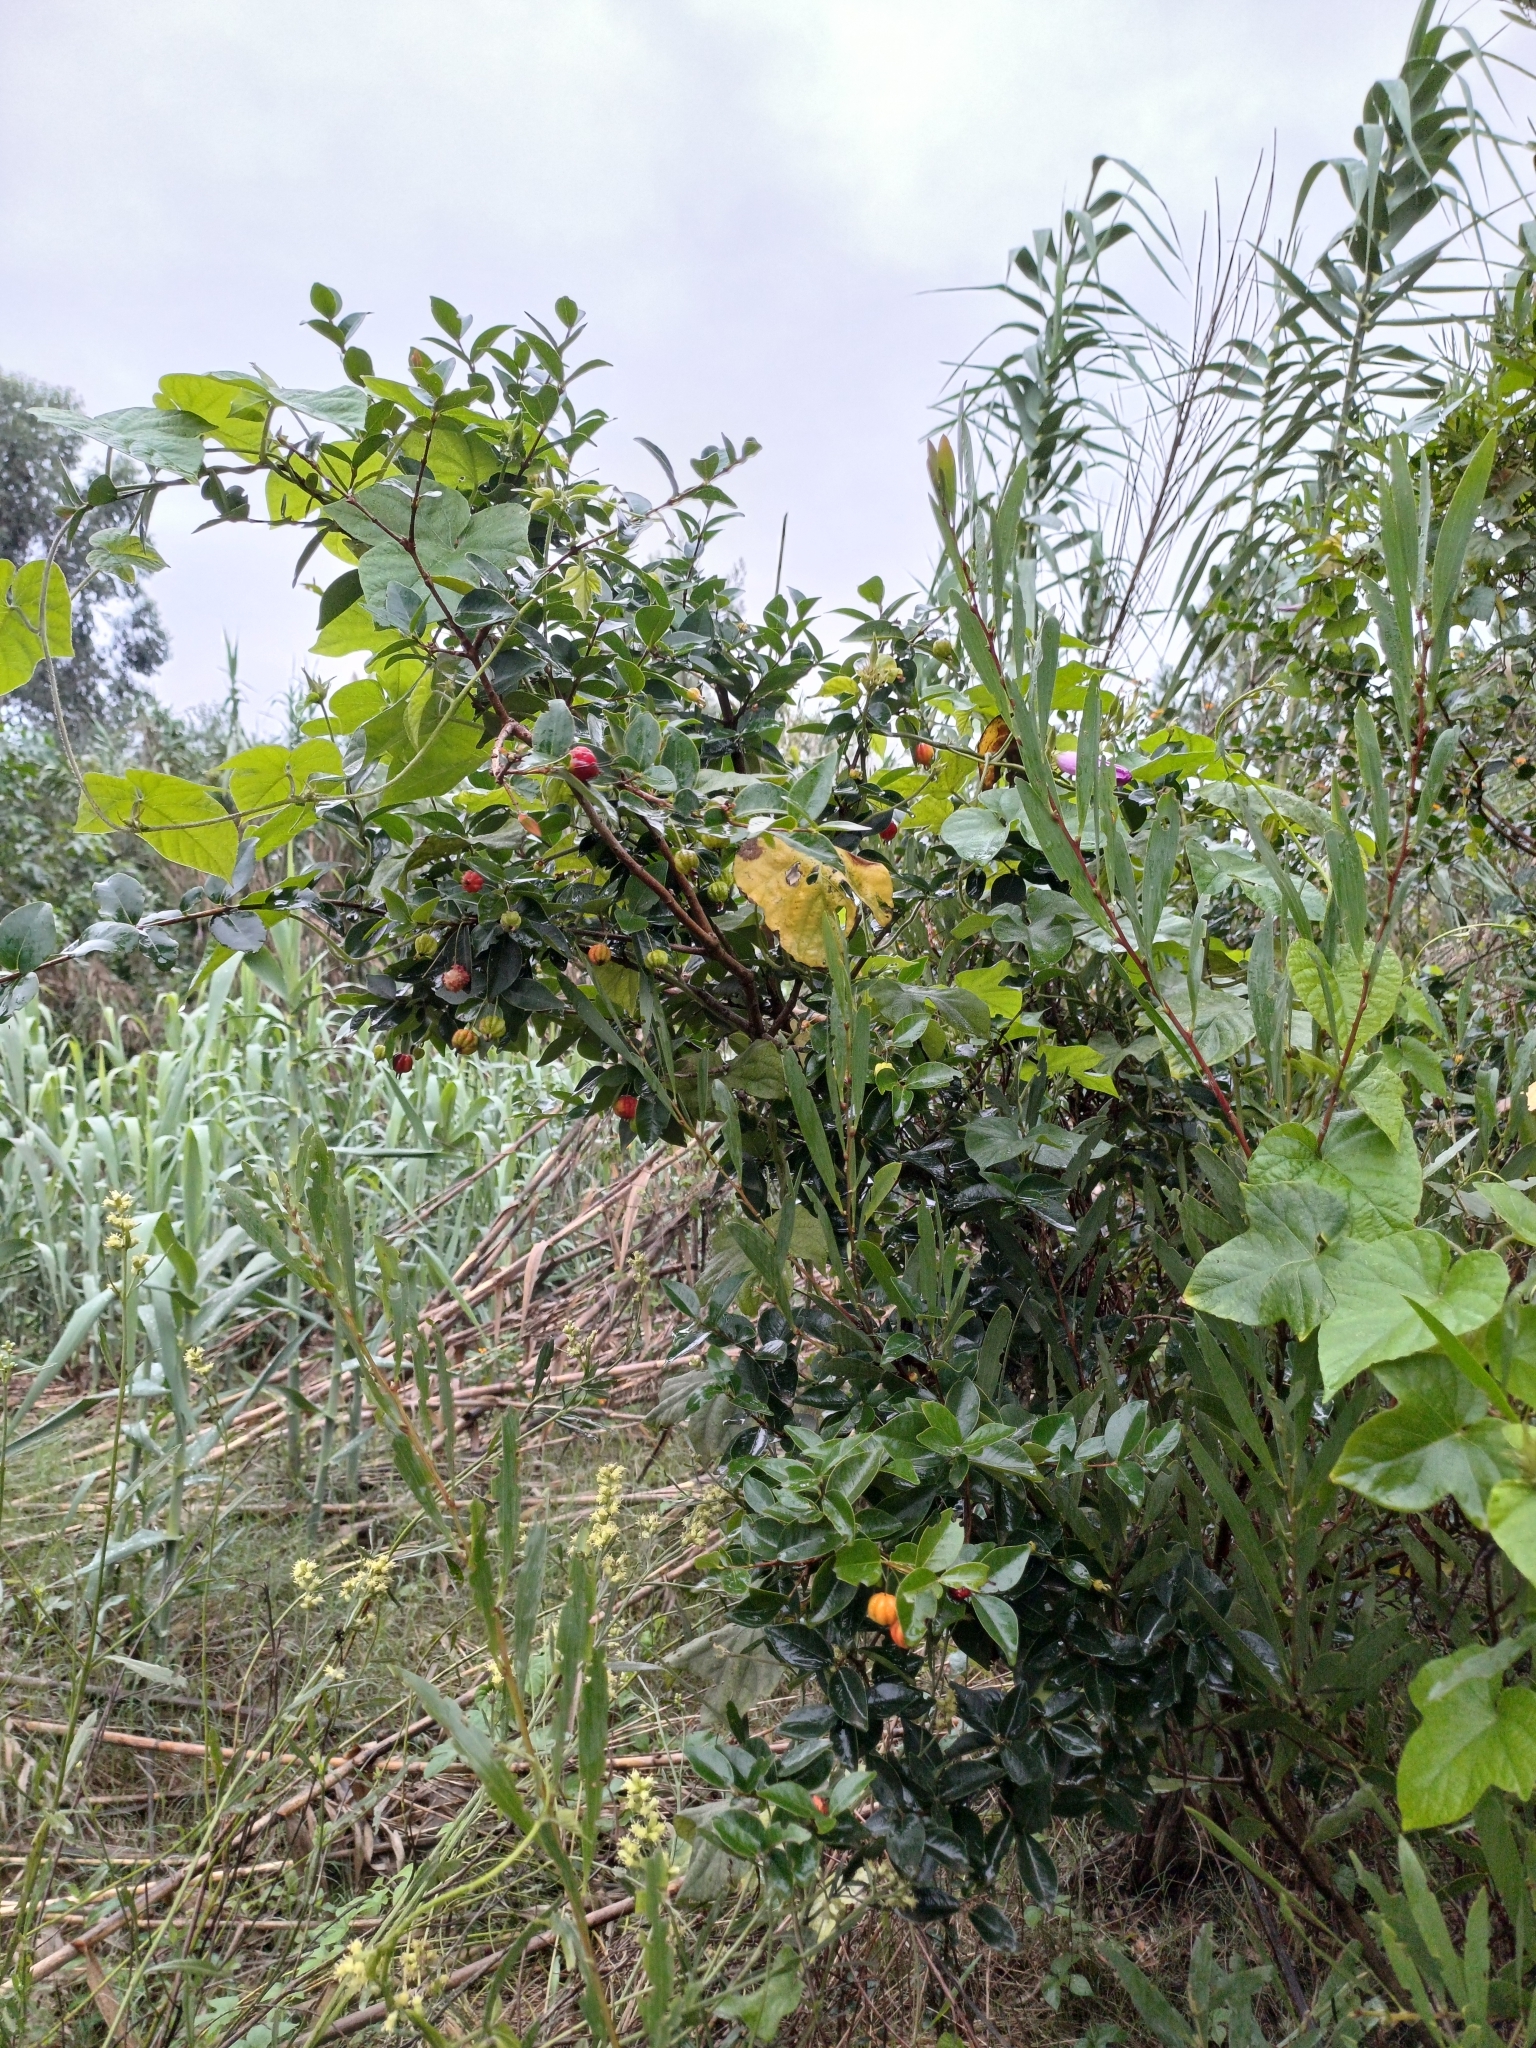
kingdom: Plantae
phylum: Tracheophyta
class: Magnoliopsida
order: Myrtales
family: Myrtaceae
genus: Eugenia
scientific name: Eugenia uniflora
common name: Surinam cherry
